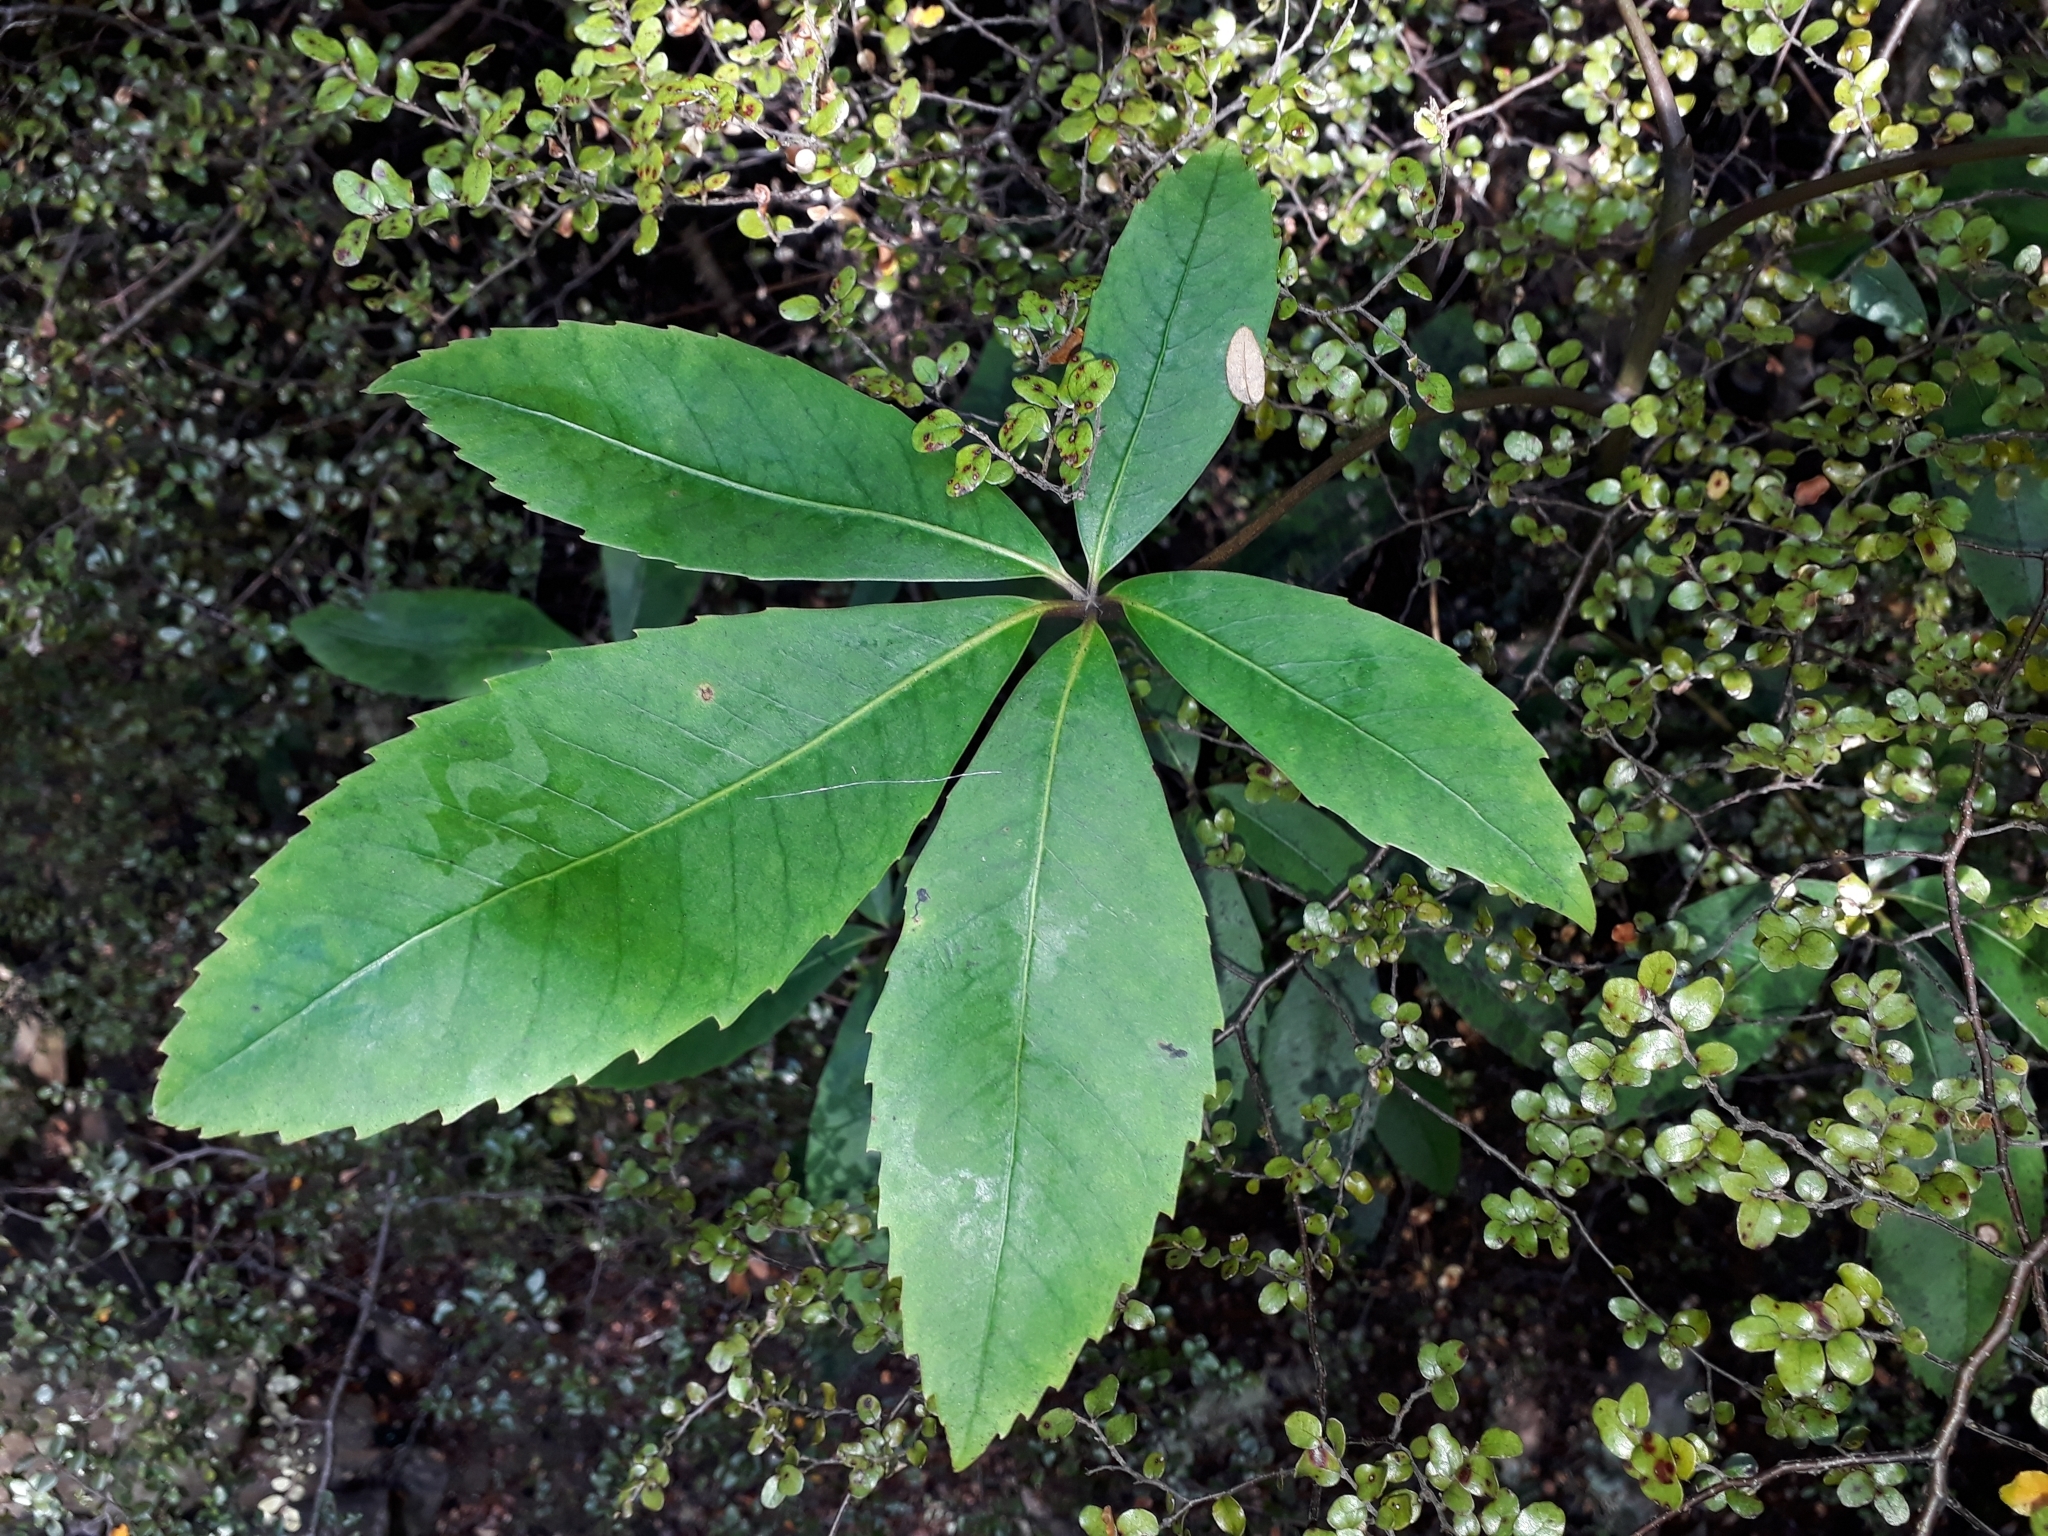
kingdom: Plantae
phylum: Tracheophyta
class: Magnoliopsida
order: Apiales
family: Araliaceae
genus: Neopanax
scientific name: Neopanax colensoi
